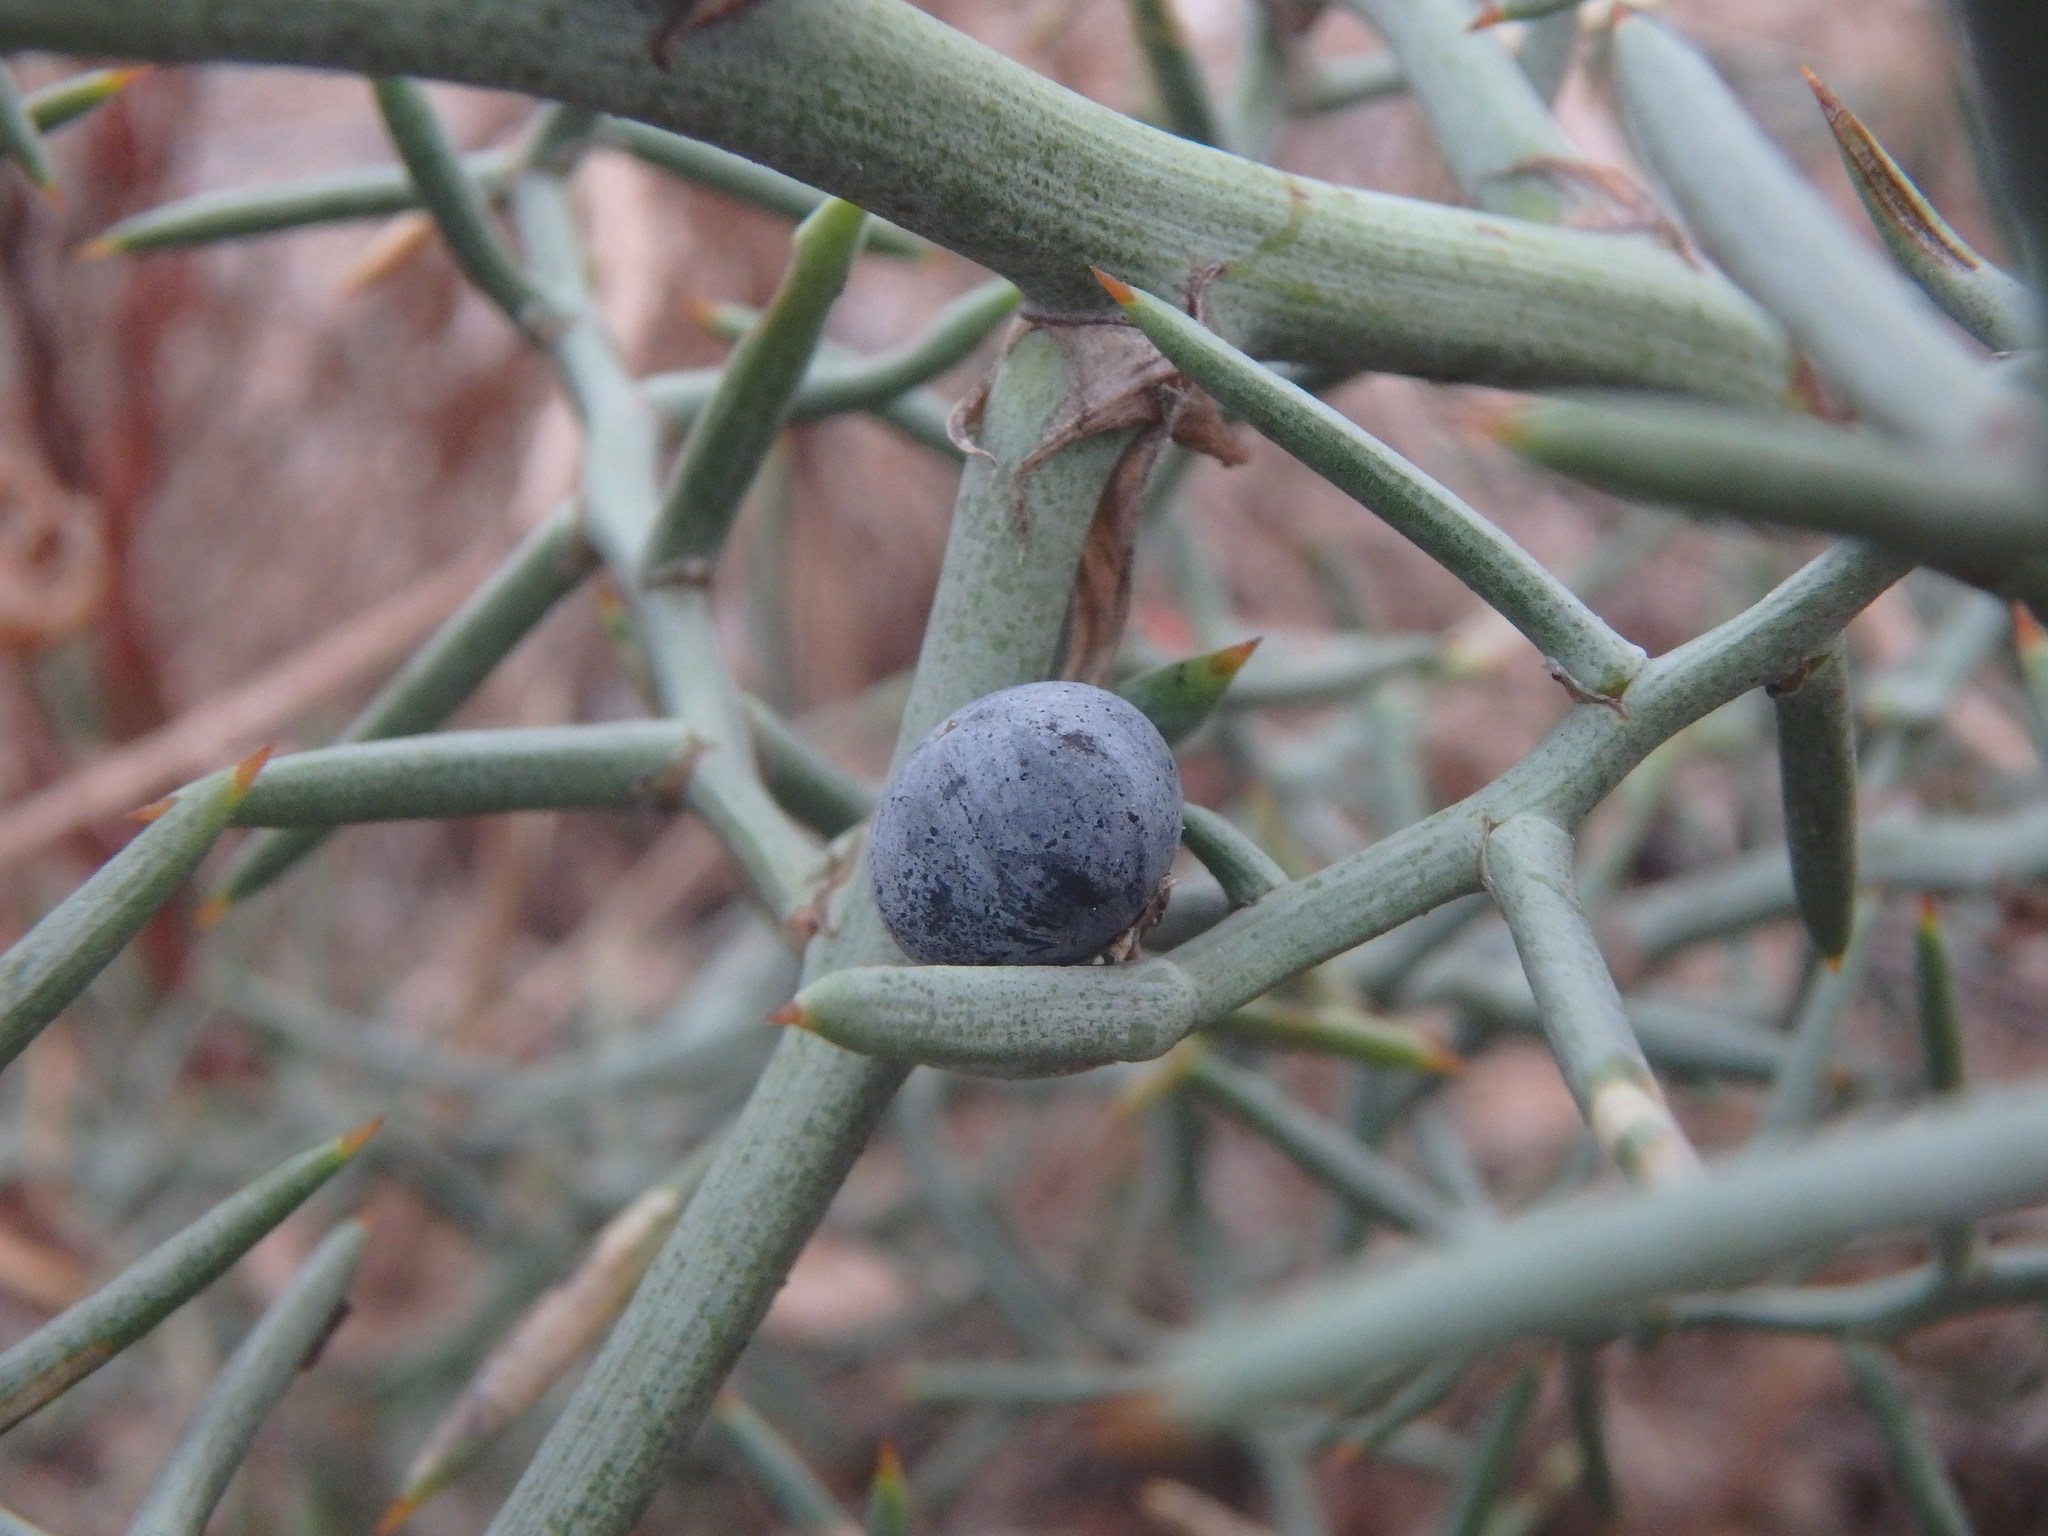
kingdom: Plantae
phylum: Tracheophyta
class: Liliopsida
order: Asparagales
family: Asparagaceae
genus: Asparagus
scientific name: Asparagus horridus
